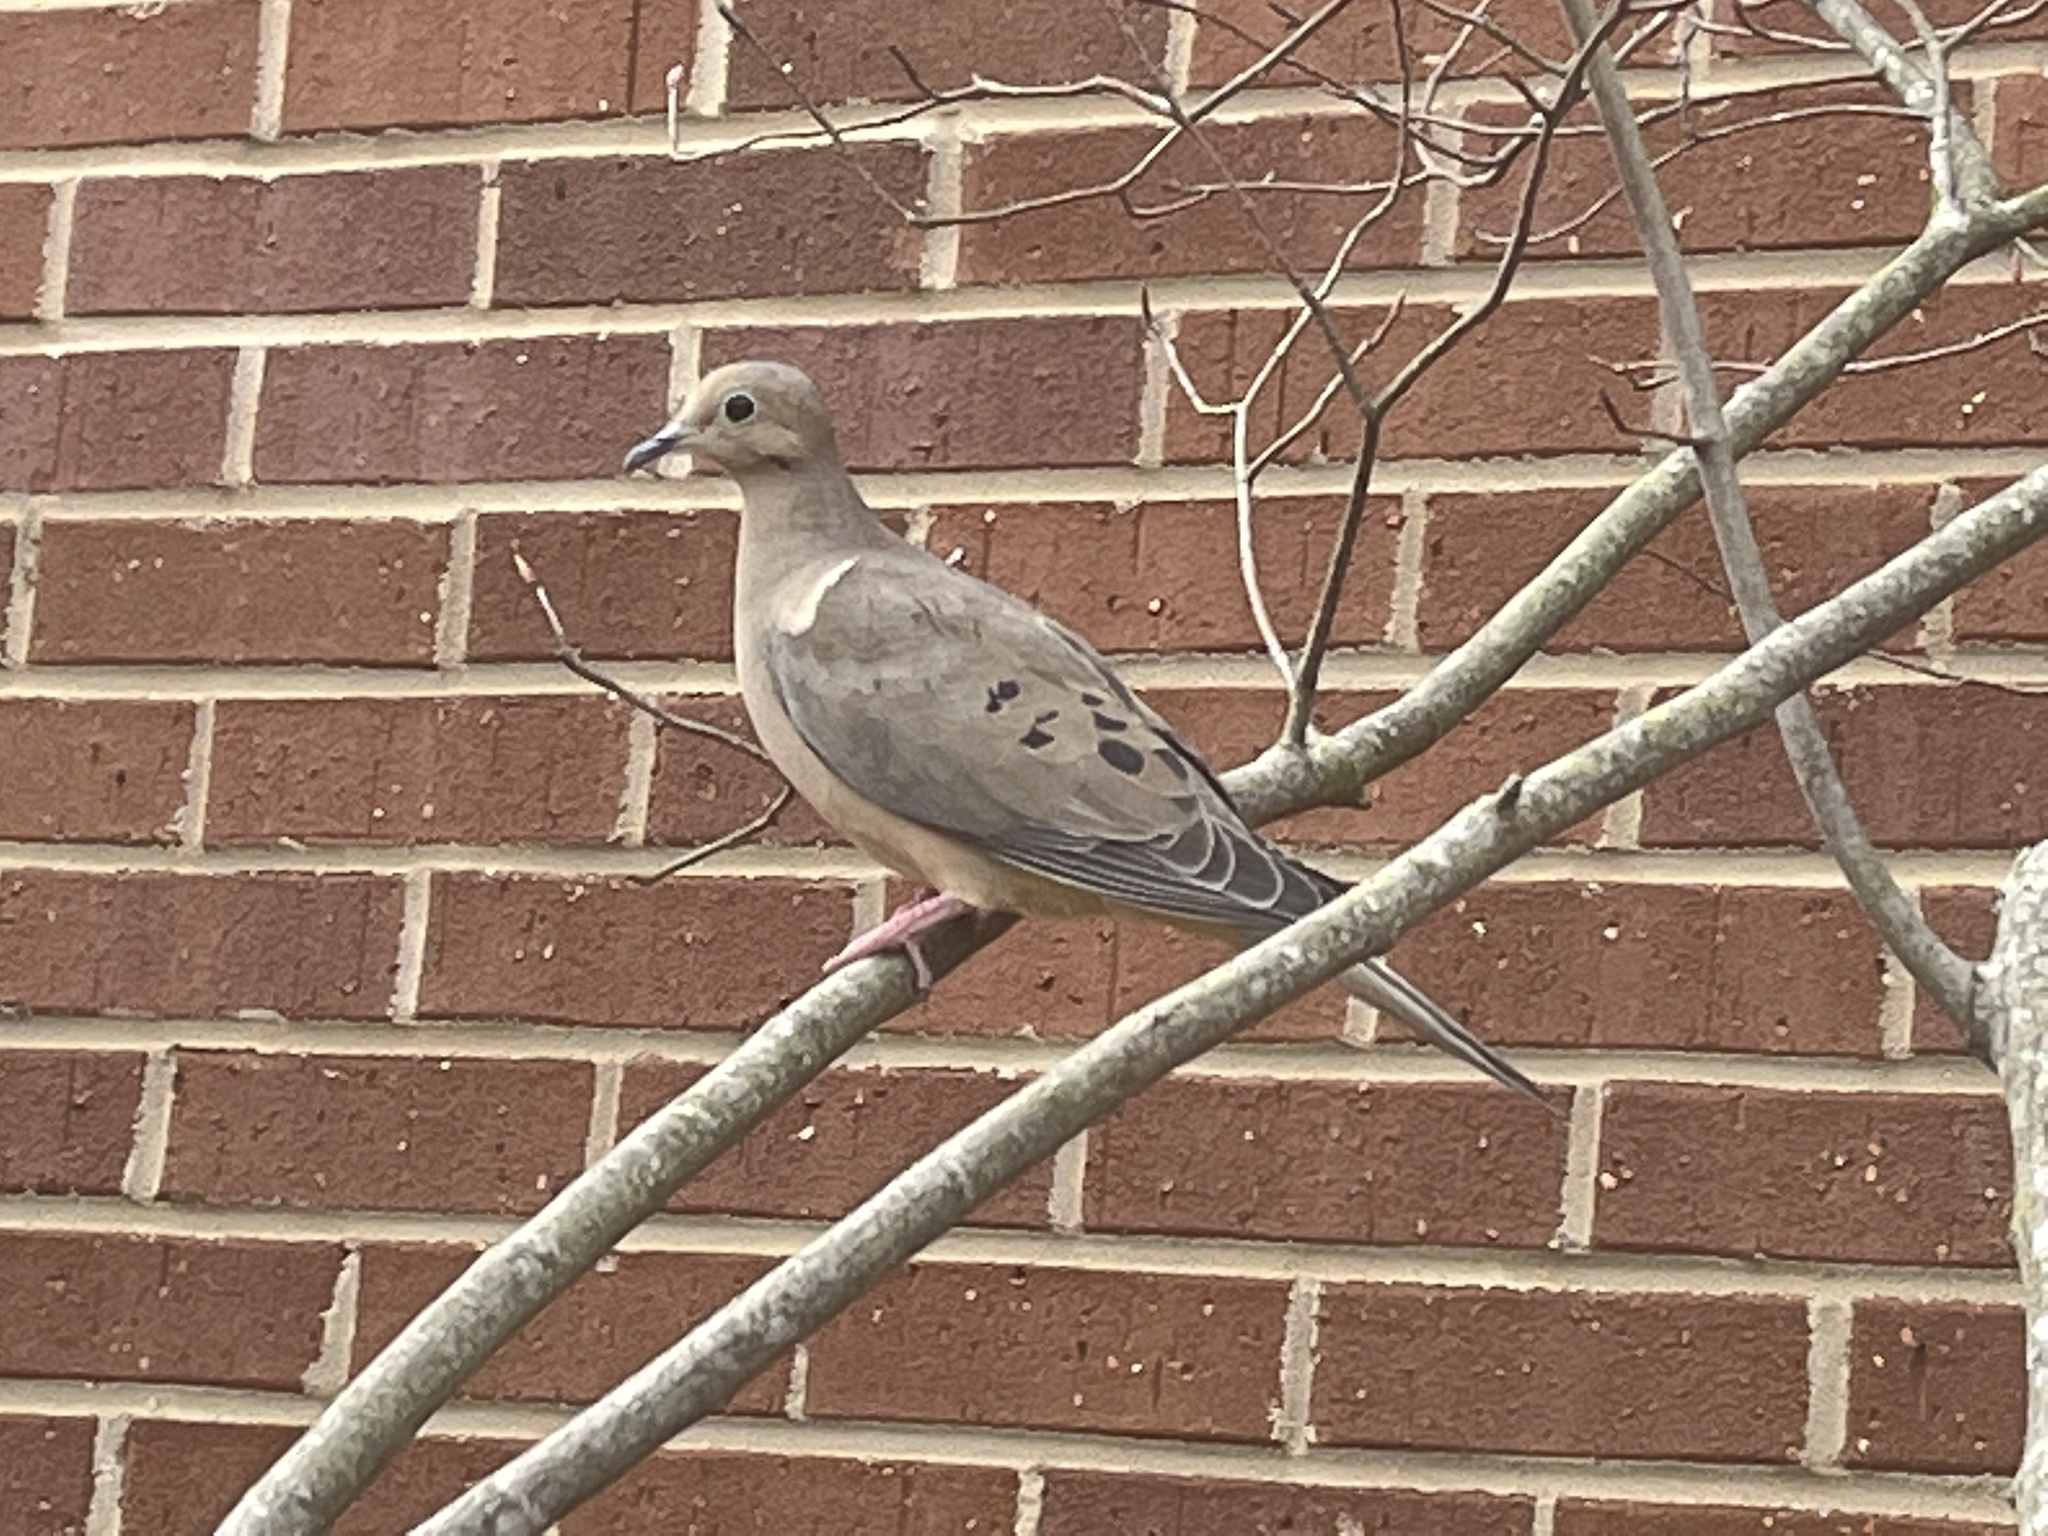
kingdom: Animalia
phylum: Chordata
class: Aves
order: Columbiformes
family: Columbidae
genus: Zenaida
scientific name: Zenaida macroura
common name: Mourning dove
